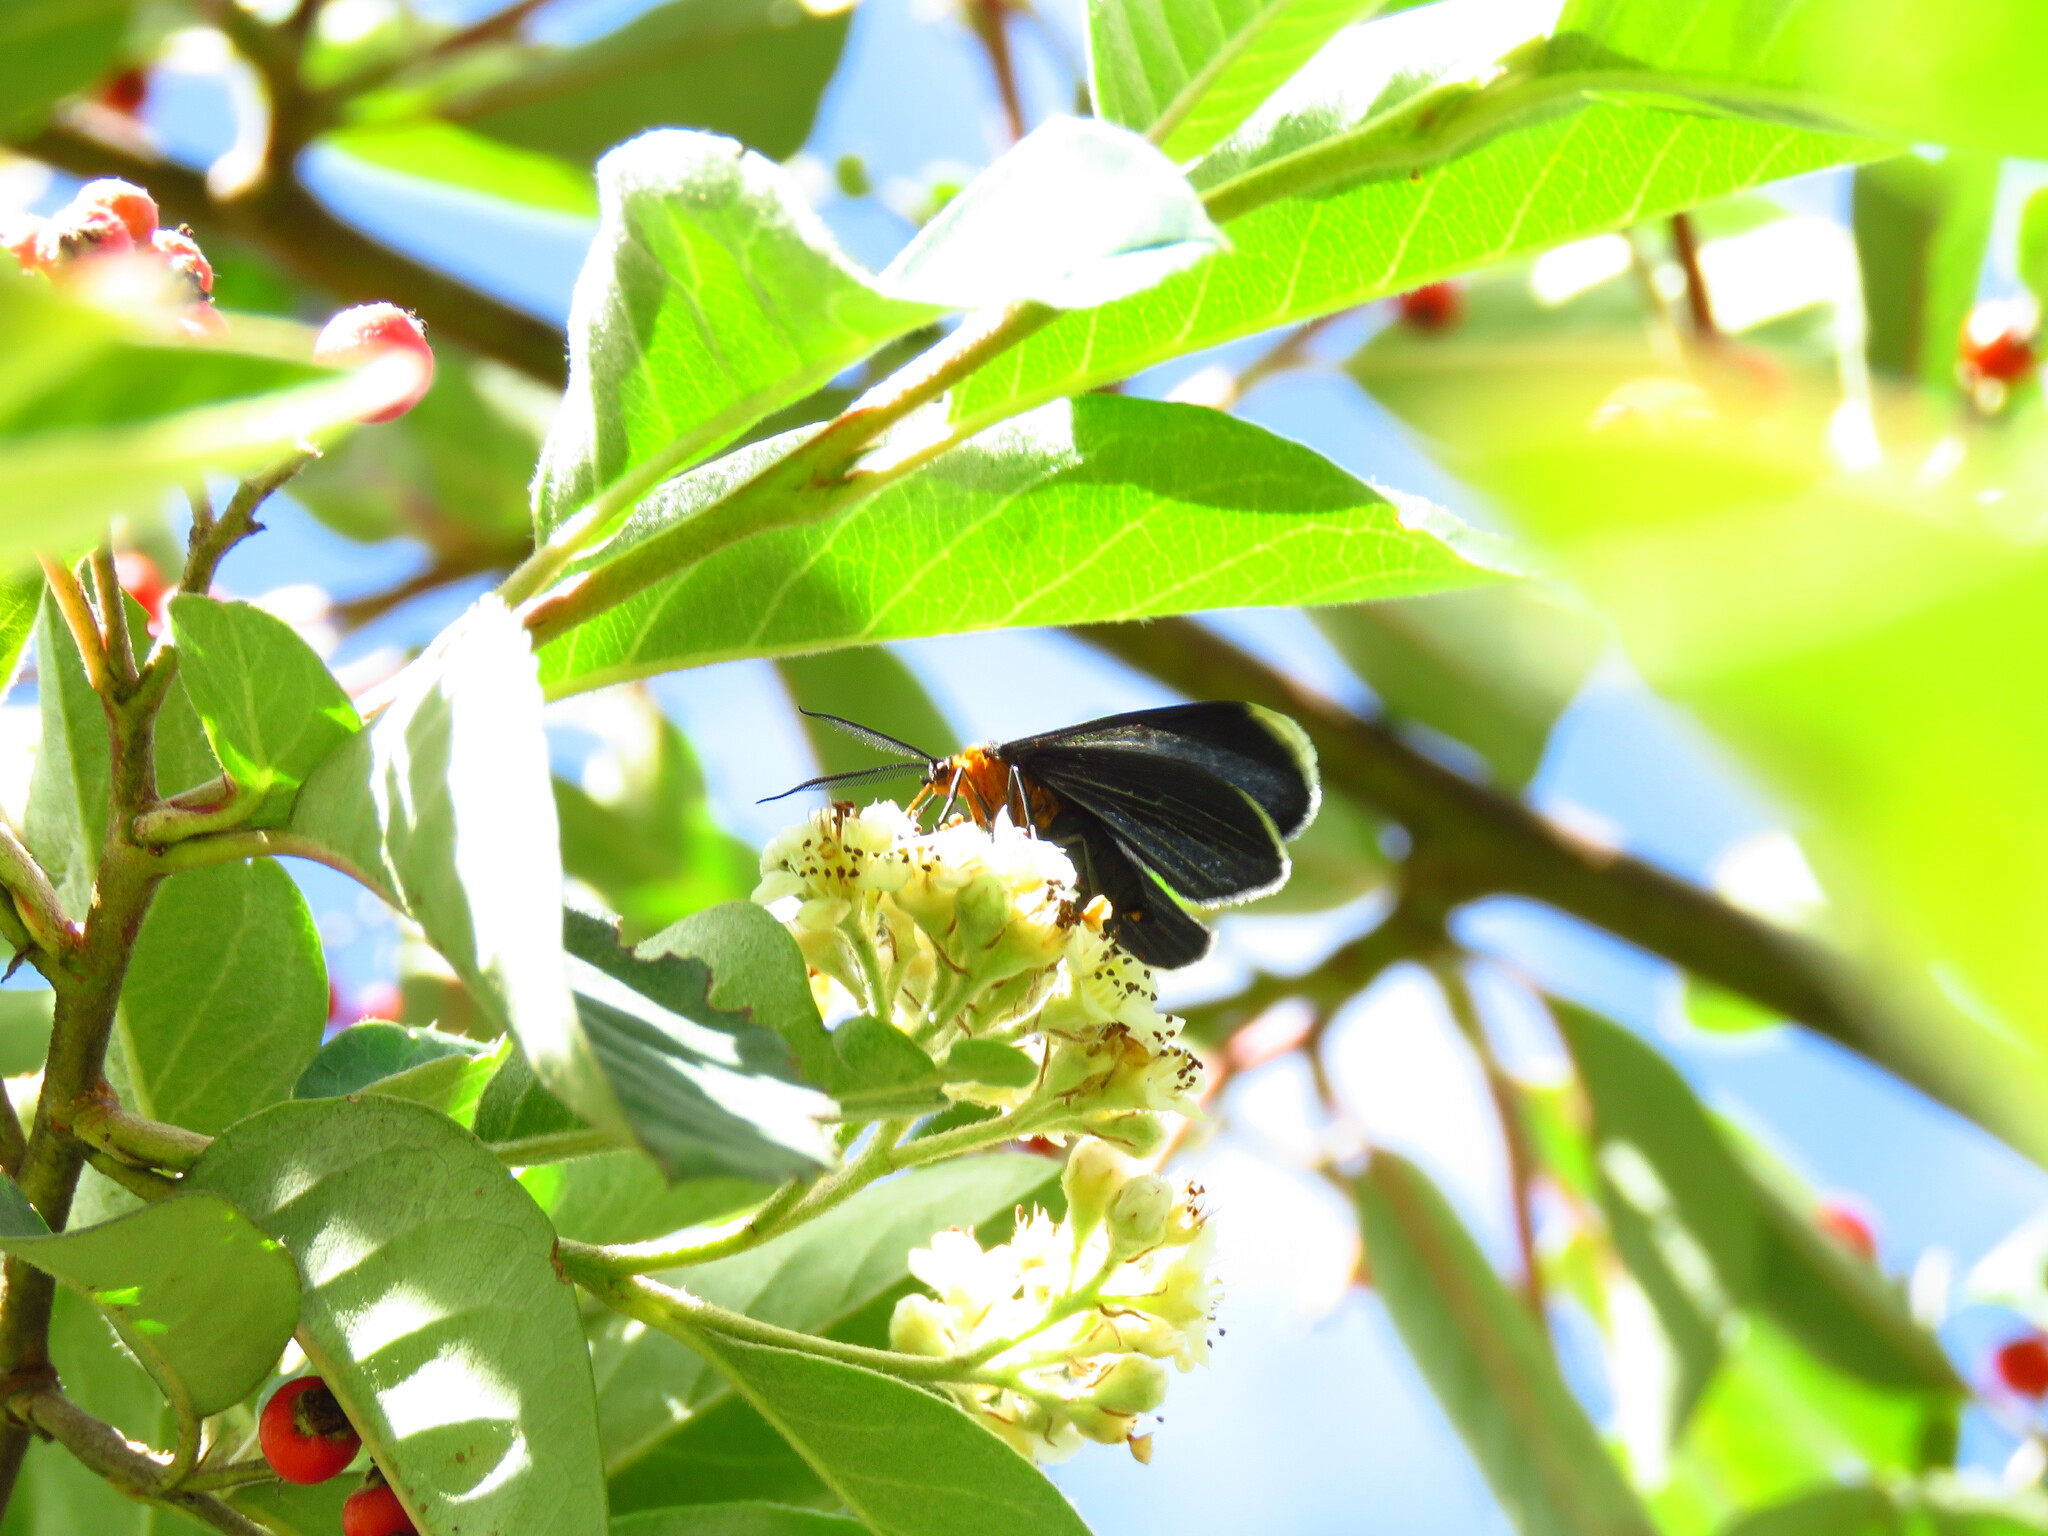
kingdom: Animalia
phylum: Arthropoda
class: Insecta
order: Lepidoptera
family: Geometridae
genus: Melanchroia
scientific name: Melanchroia chephise
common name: White-tipped black
